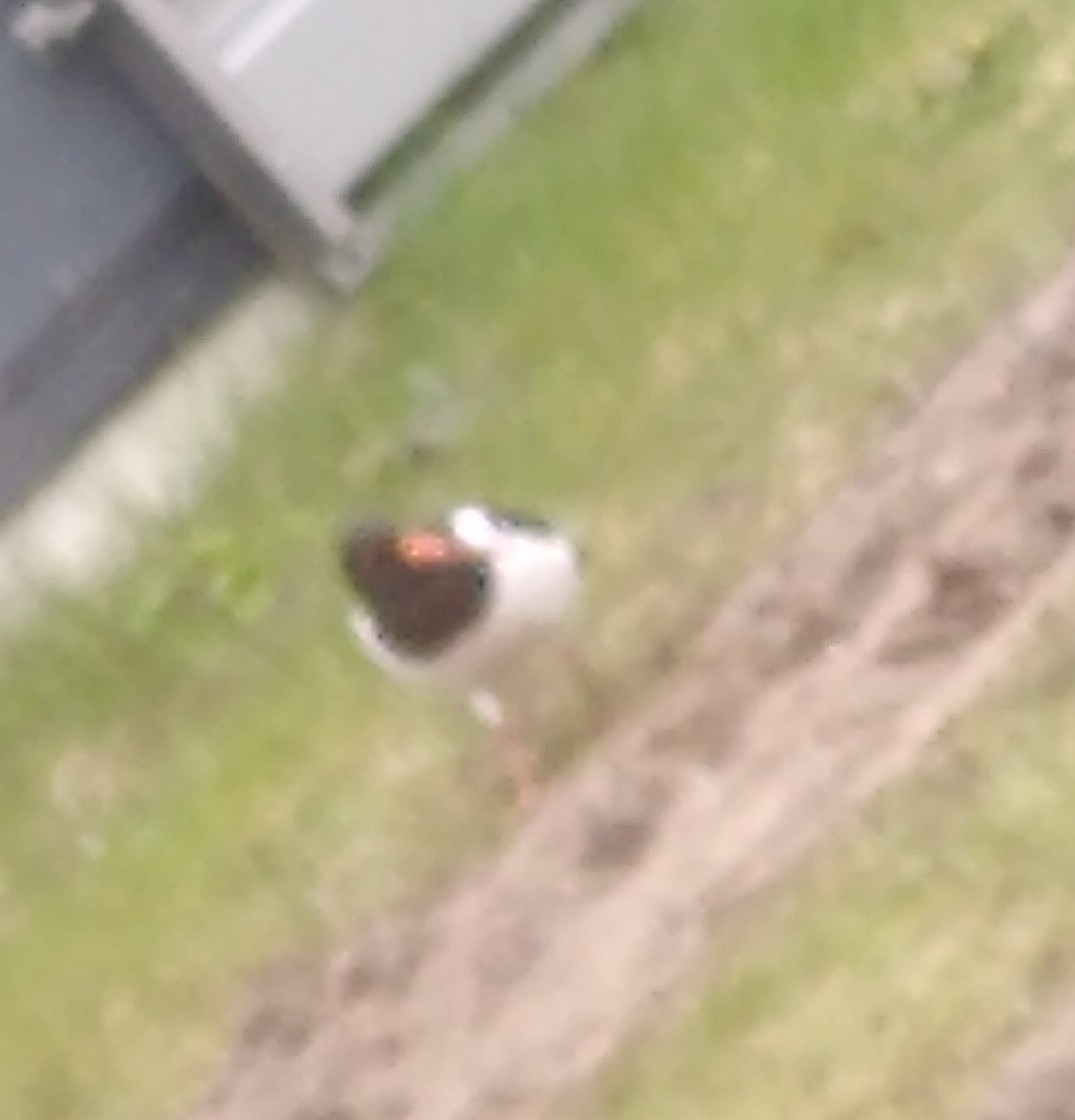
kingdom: Animalia
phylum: Chordata
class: Aves
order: Charadriiformes
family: Haematopodidae
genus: Haematopus
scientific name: Haematopus ostralegus
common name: Eurasian oystercatcher
